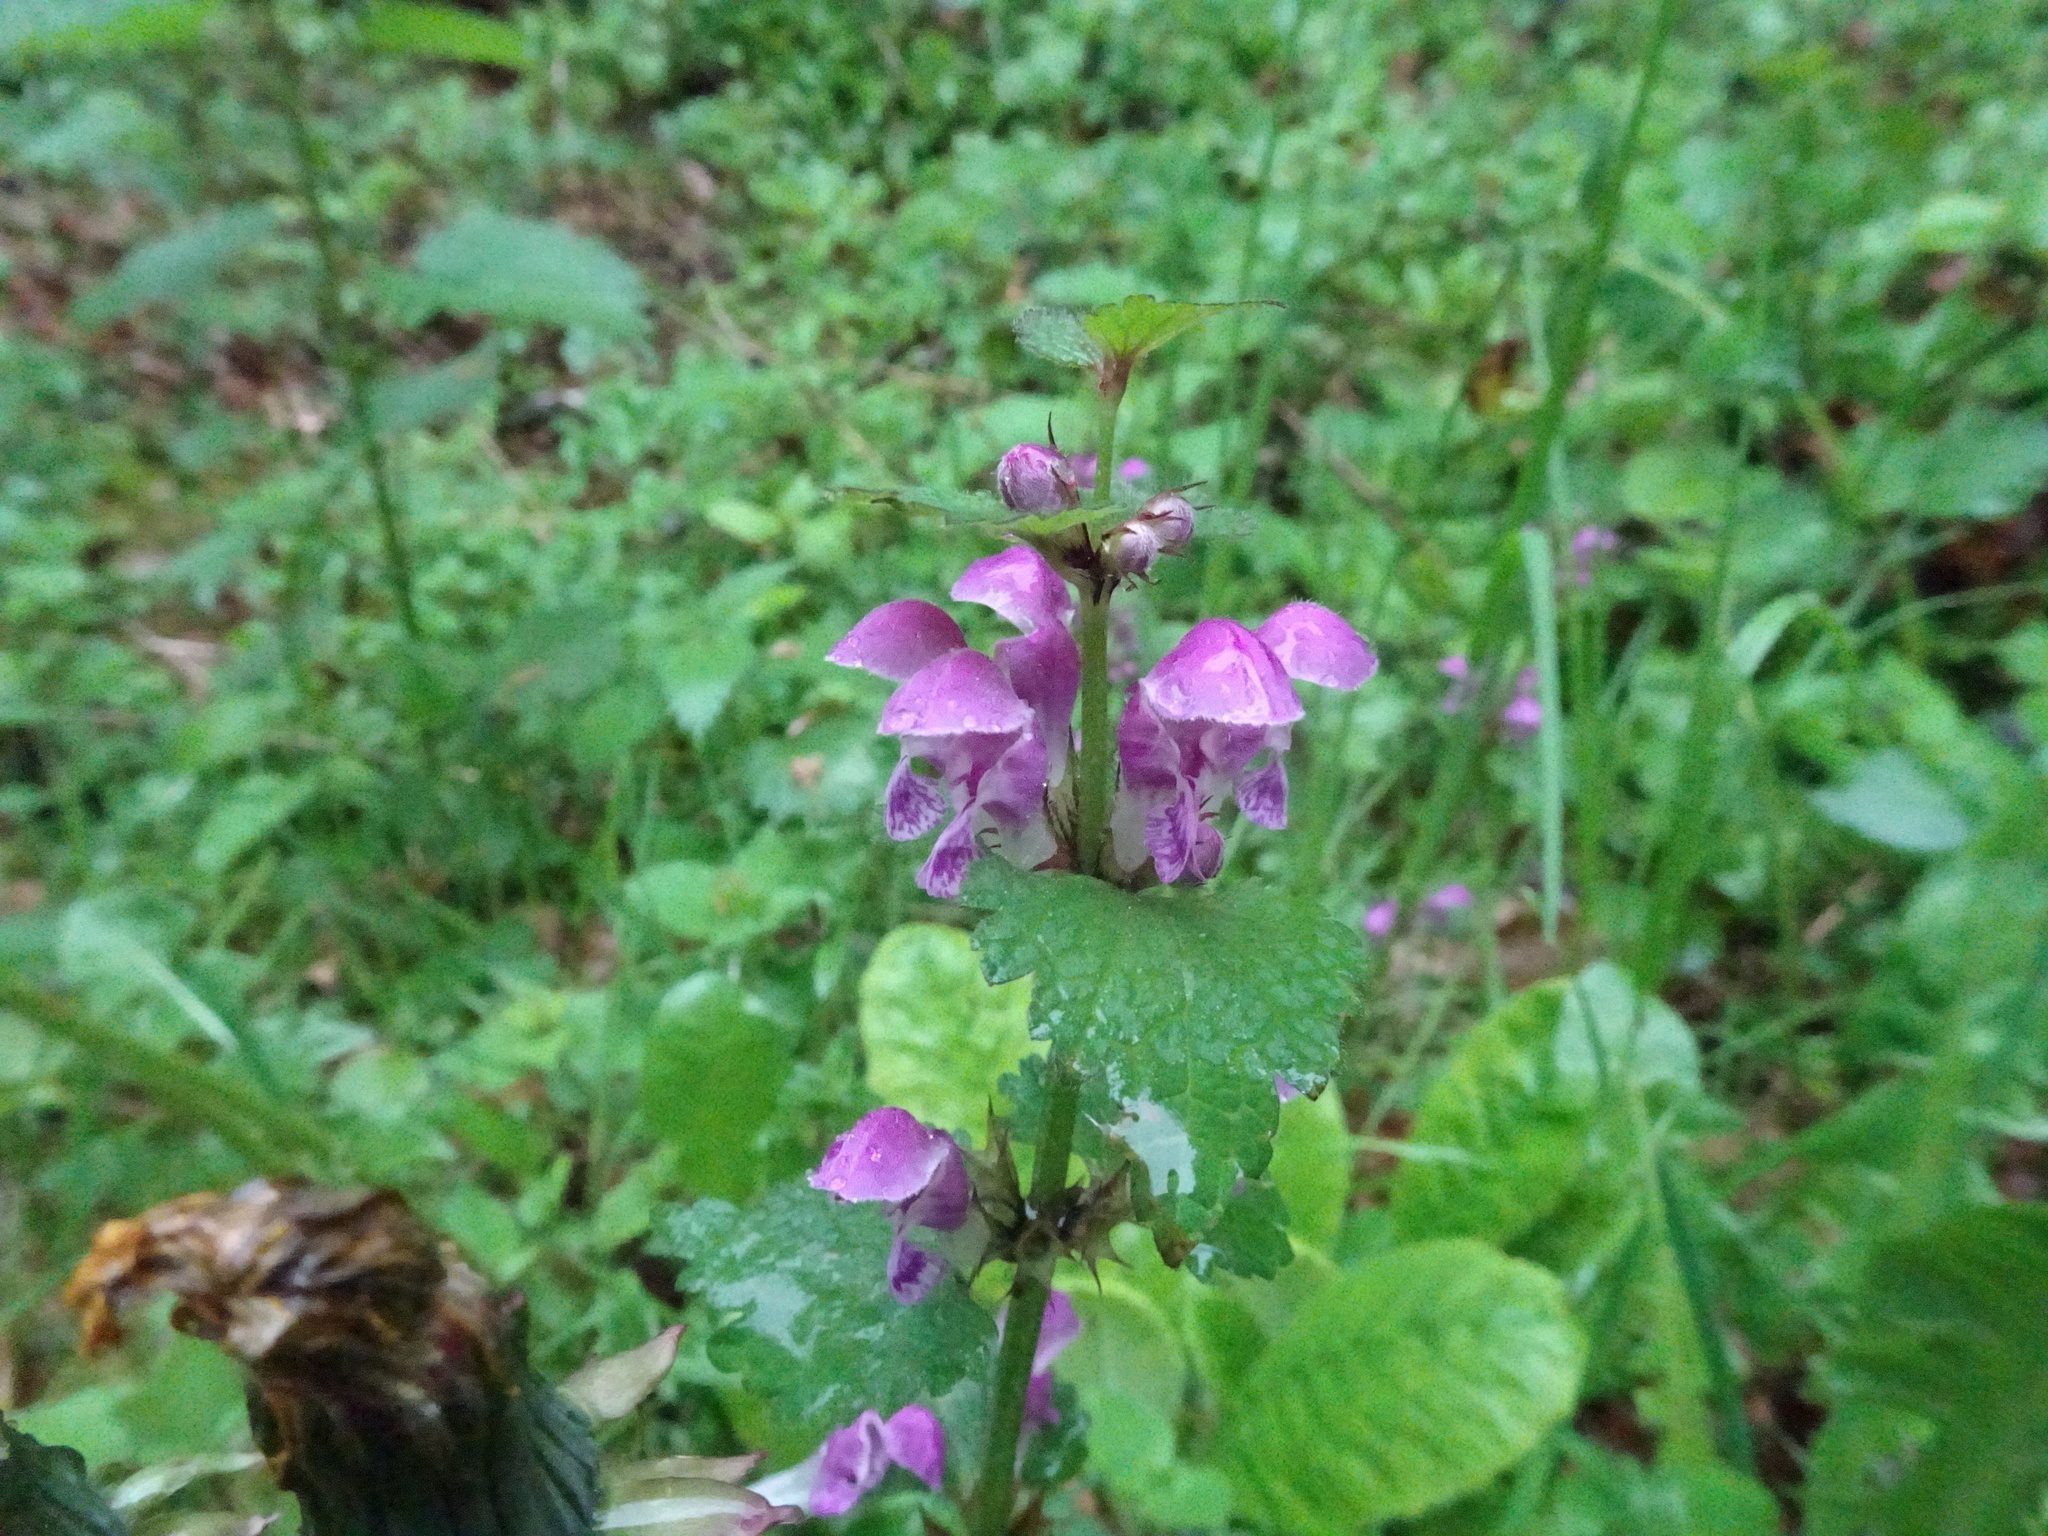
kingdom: Plantae
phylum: Tracheophyta
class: Magnoliopsida
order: Lamiales
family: Lamiaceae
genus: Lamium
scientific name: Lamium maculatum
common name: Spotted dead-nettle
